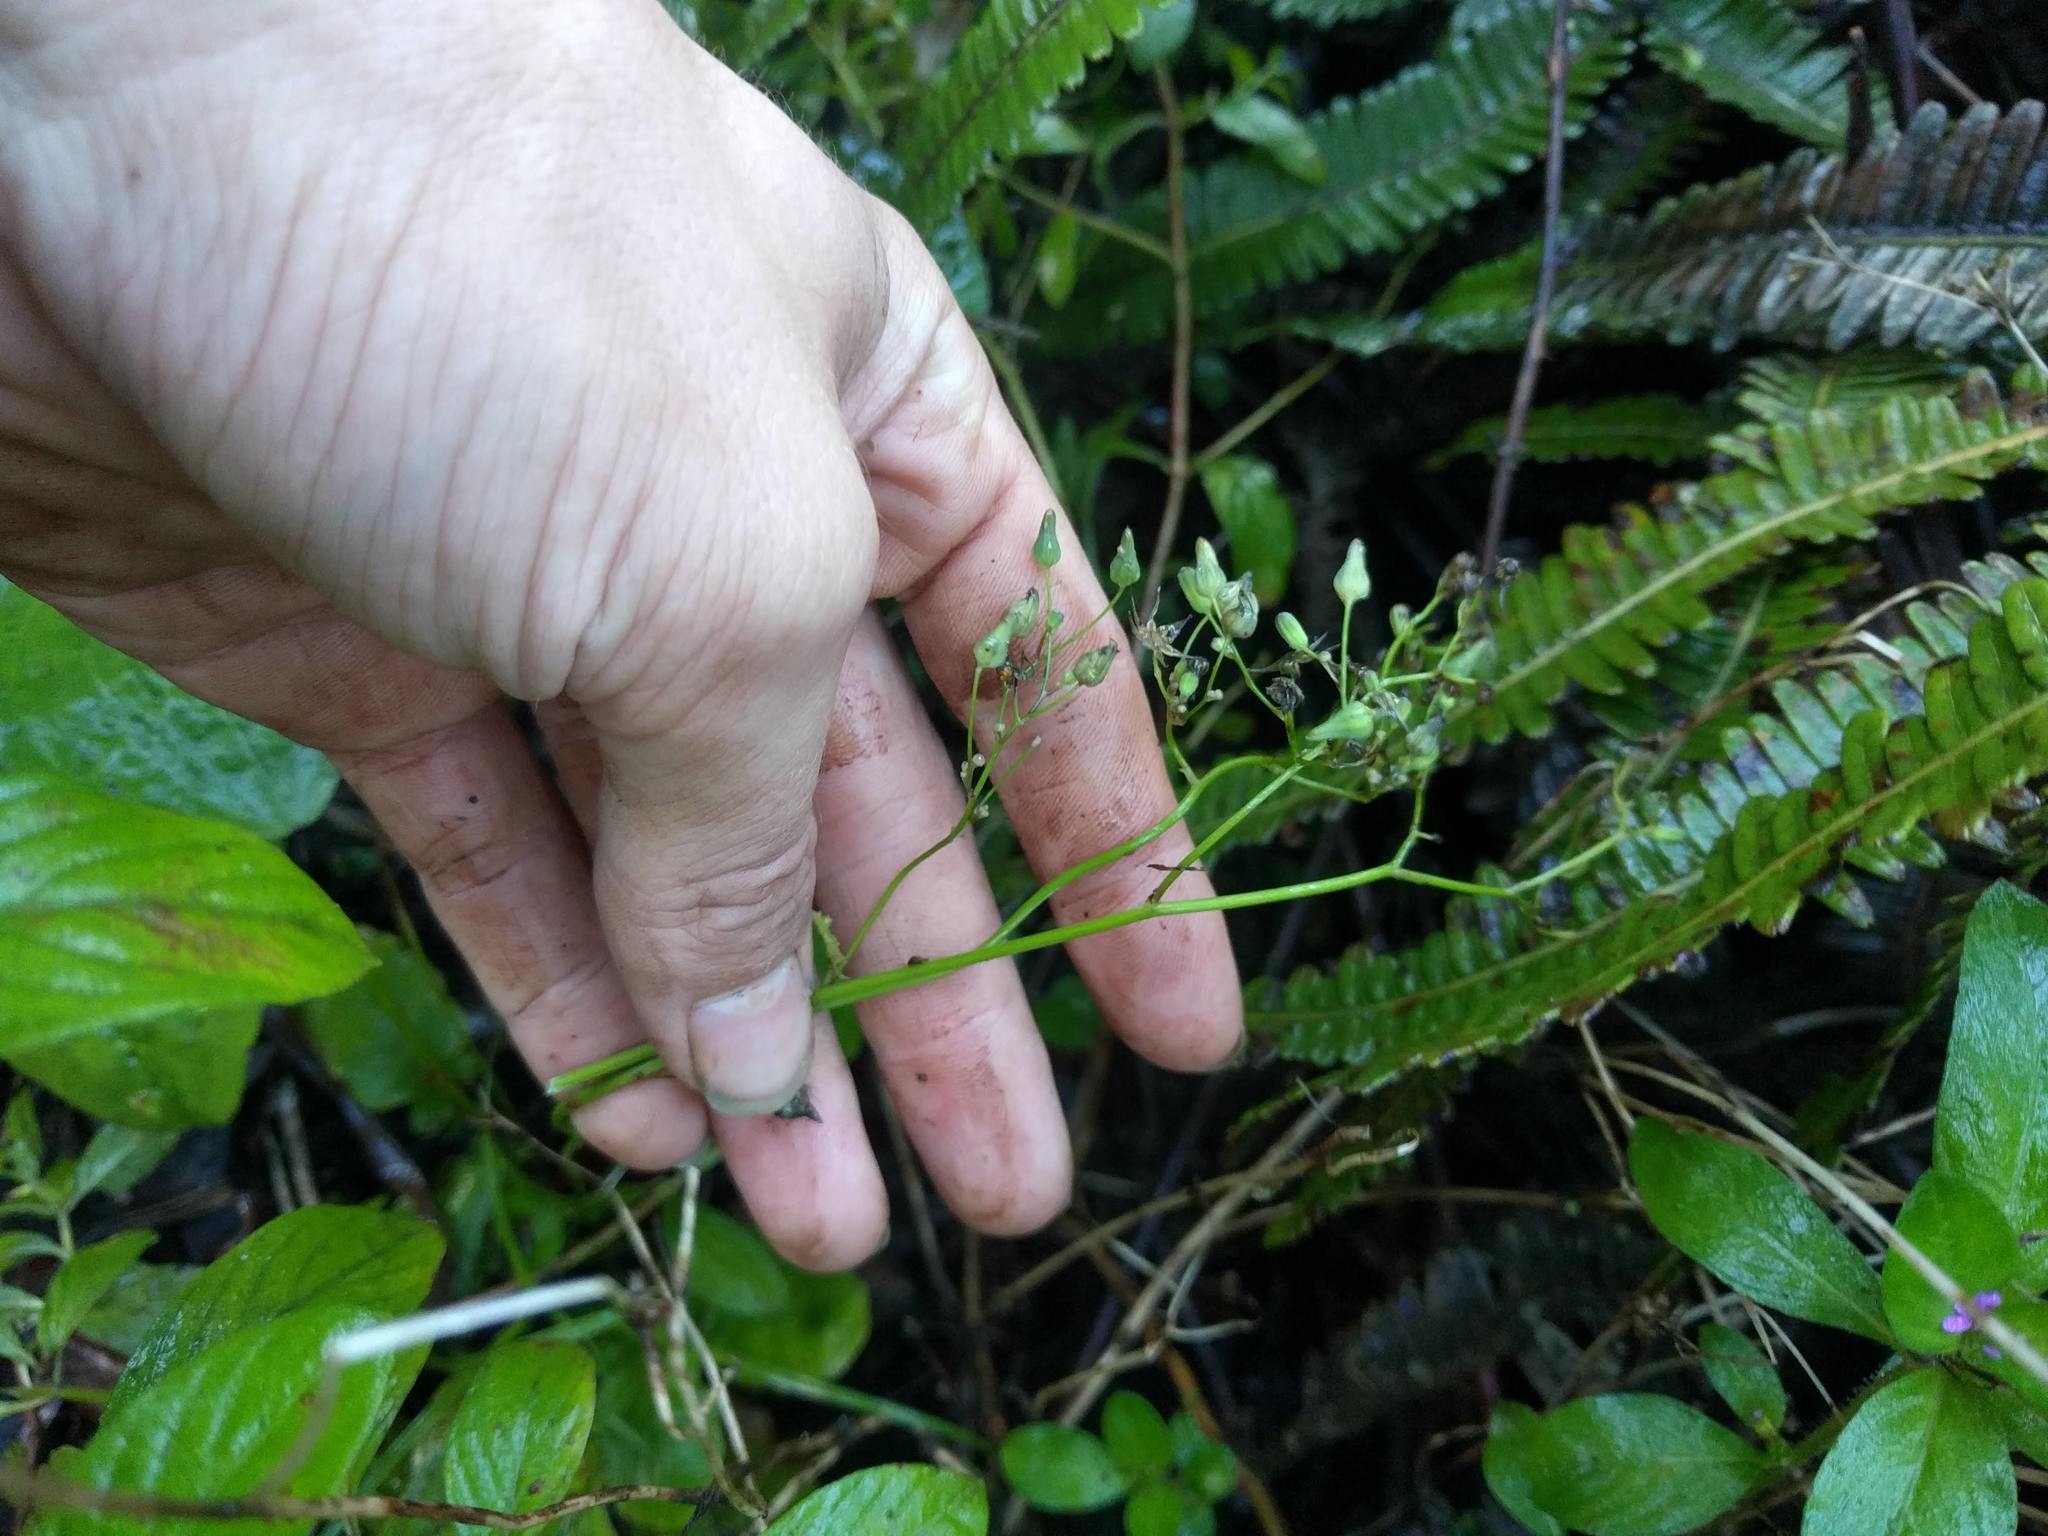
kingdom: Plantae
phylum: Tracheophyta
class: Magnoliopsida
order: Asterales
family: Asteraceae
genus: Youngia
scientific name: Youngia japonica
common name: Oriental false hawksbeard
